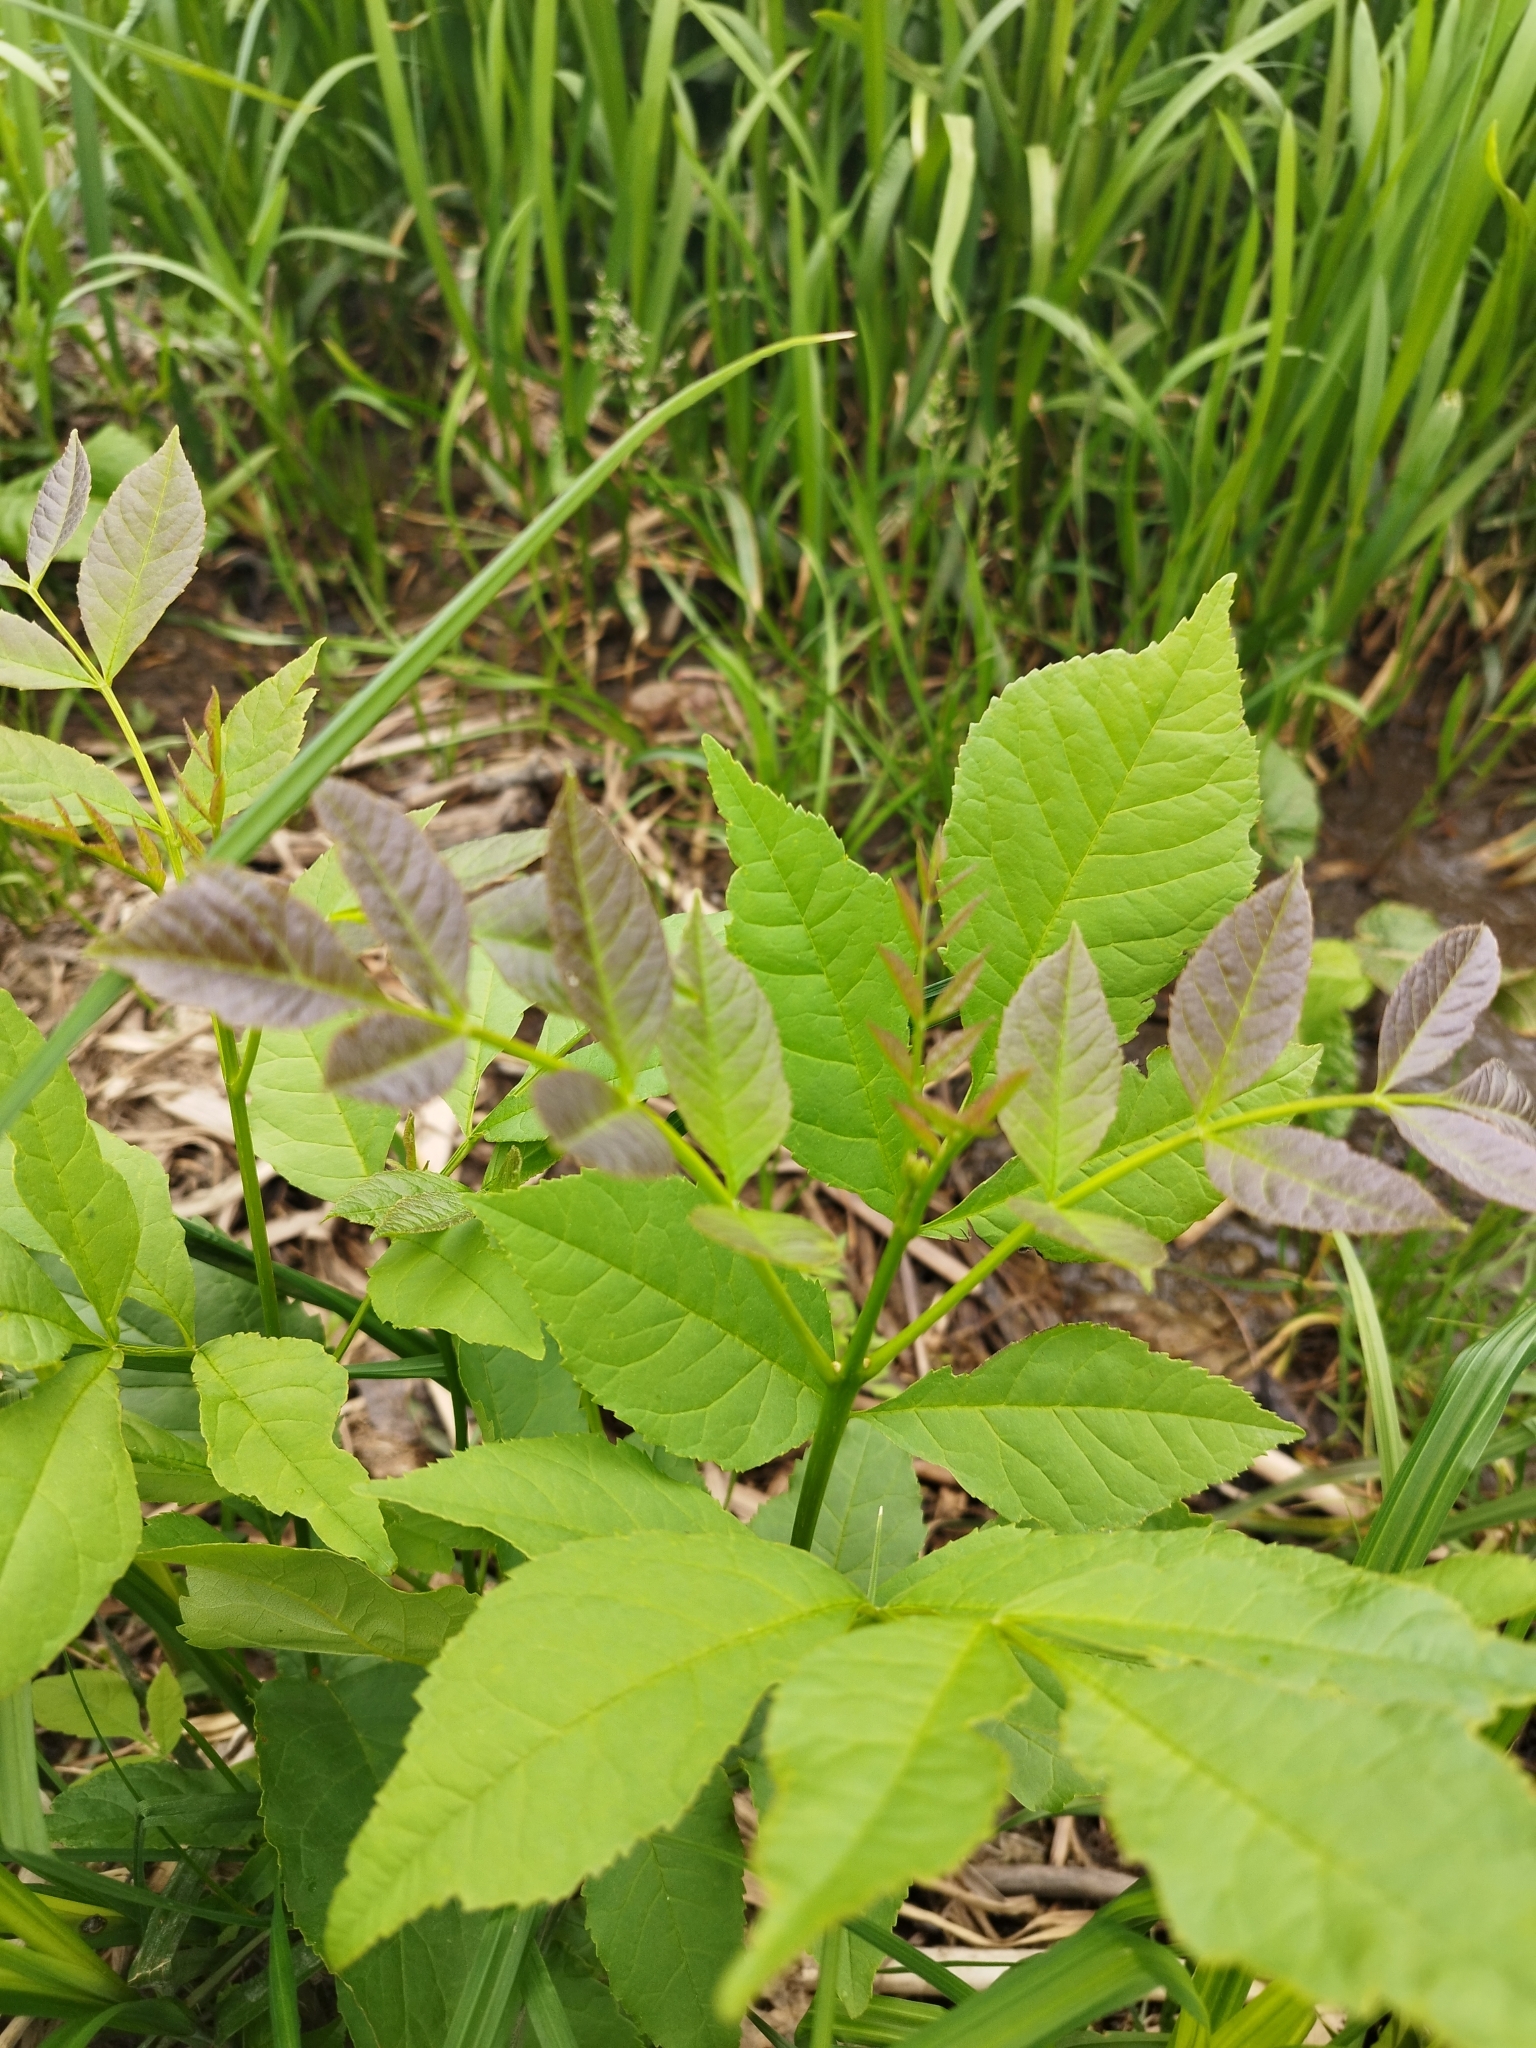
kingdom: Plantae
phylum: Tracheophyta
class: Magnoliopsida
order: Lamiales
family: Oleaceae
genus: Fraxinus
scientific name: Fraxinus pennsylvanica
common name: Green ash
